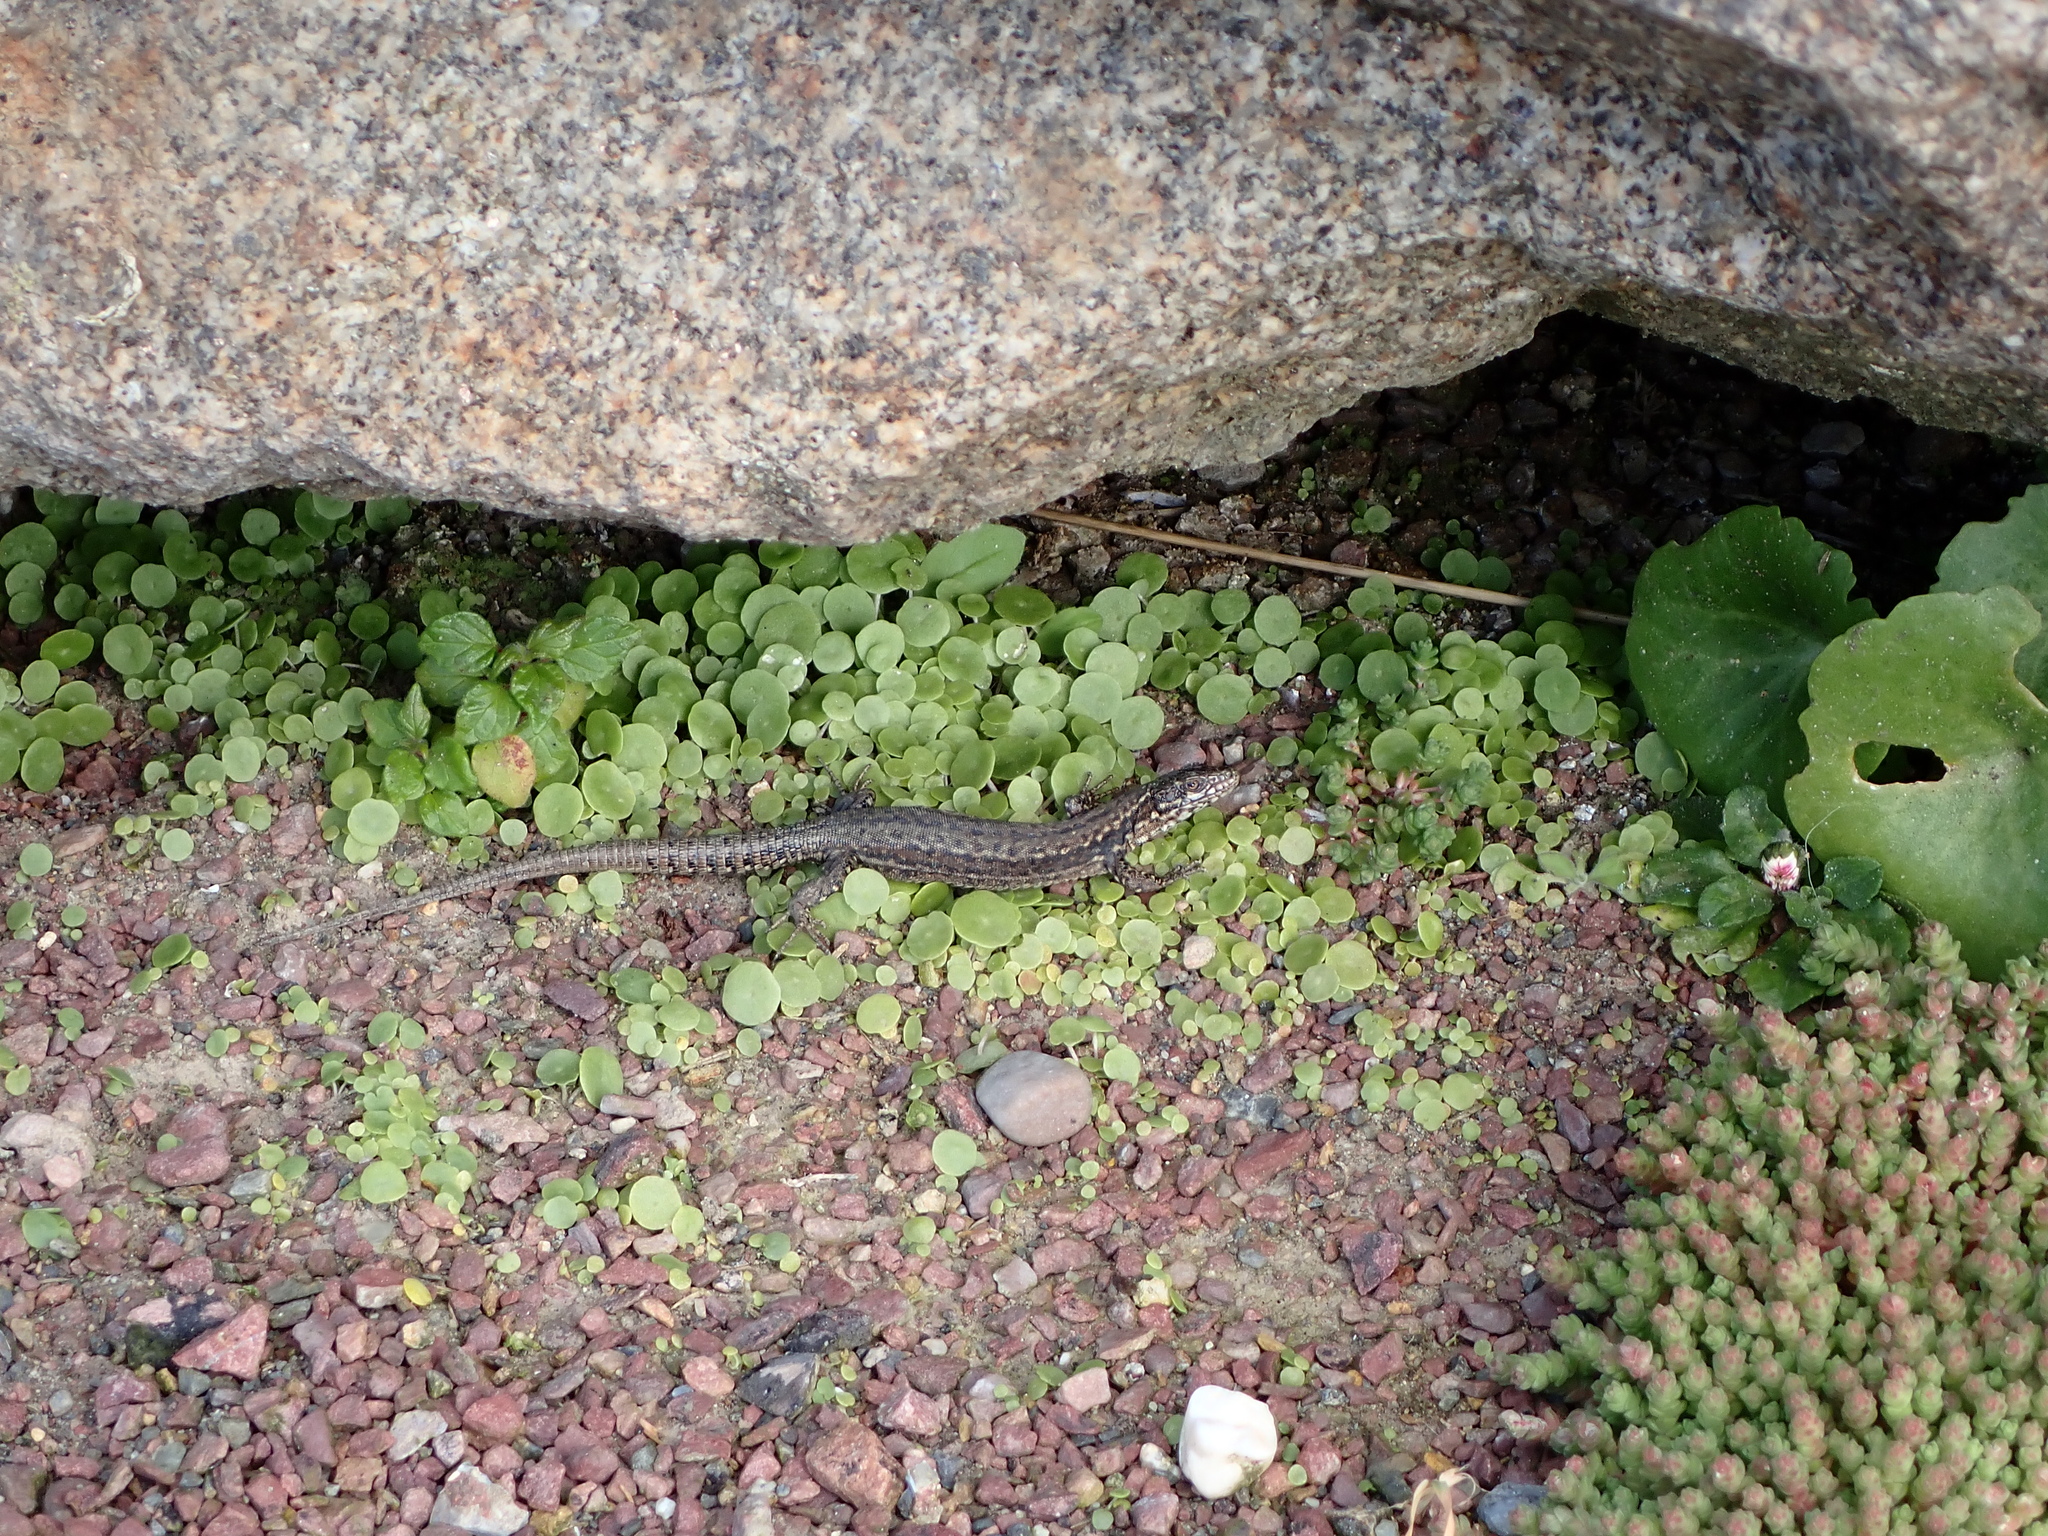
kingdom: Animalia
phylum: Chordata
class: Squamata
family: Lacertidae
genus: Podarcis
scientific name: Podarcis muralis
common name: Common wall lizard
